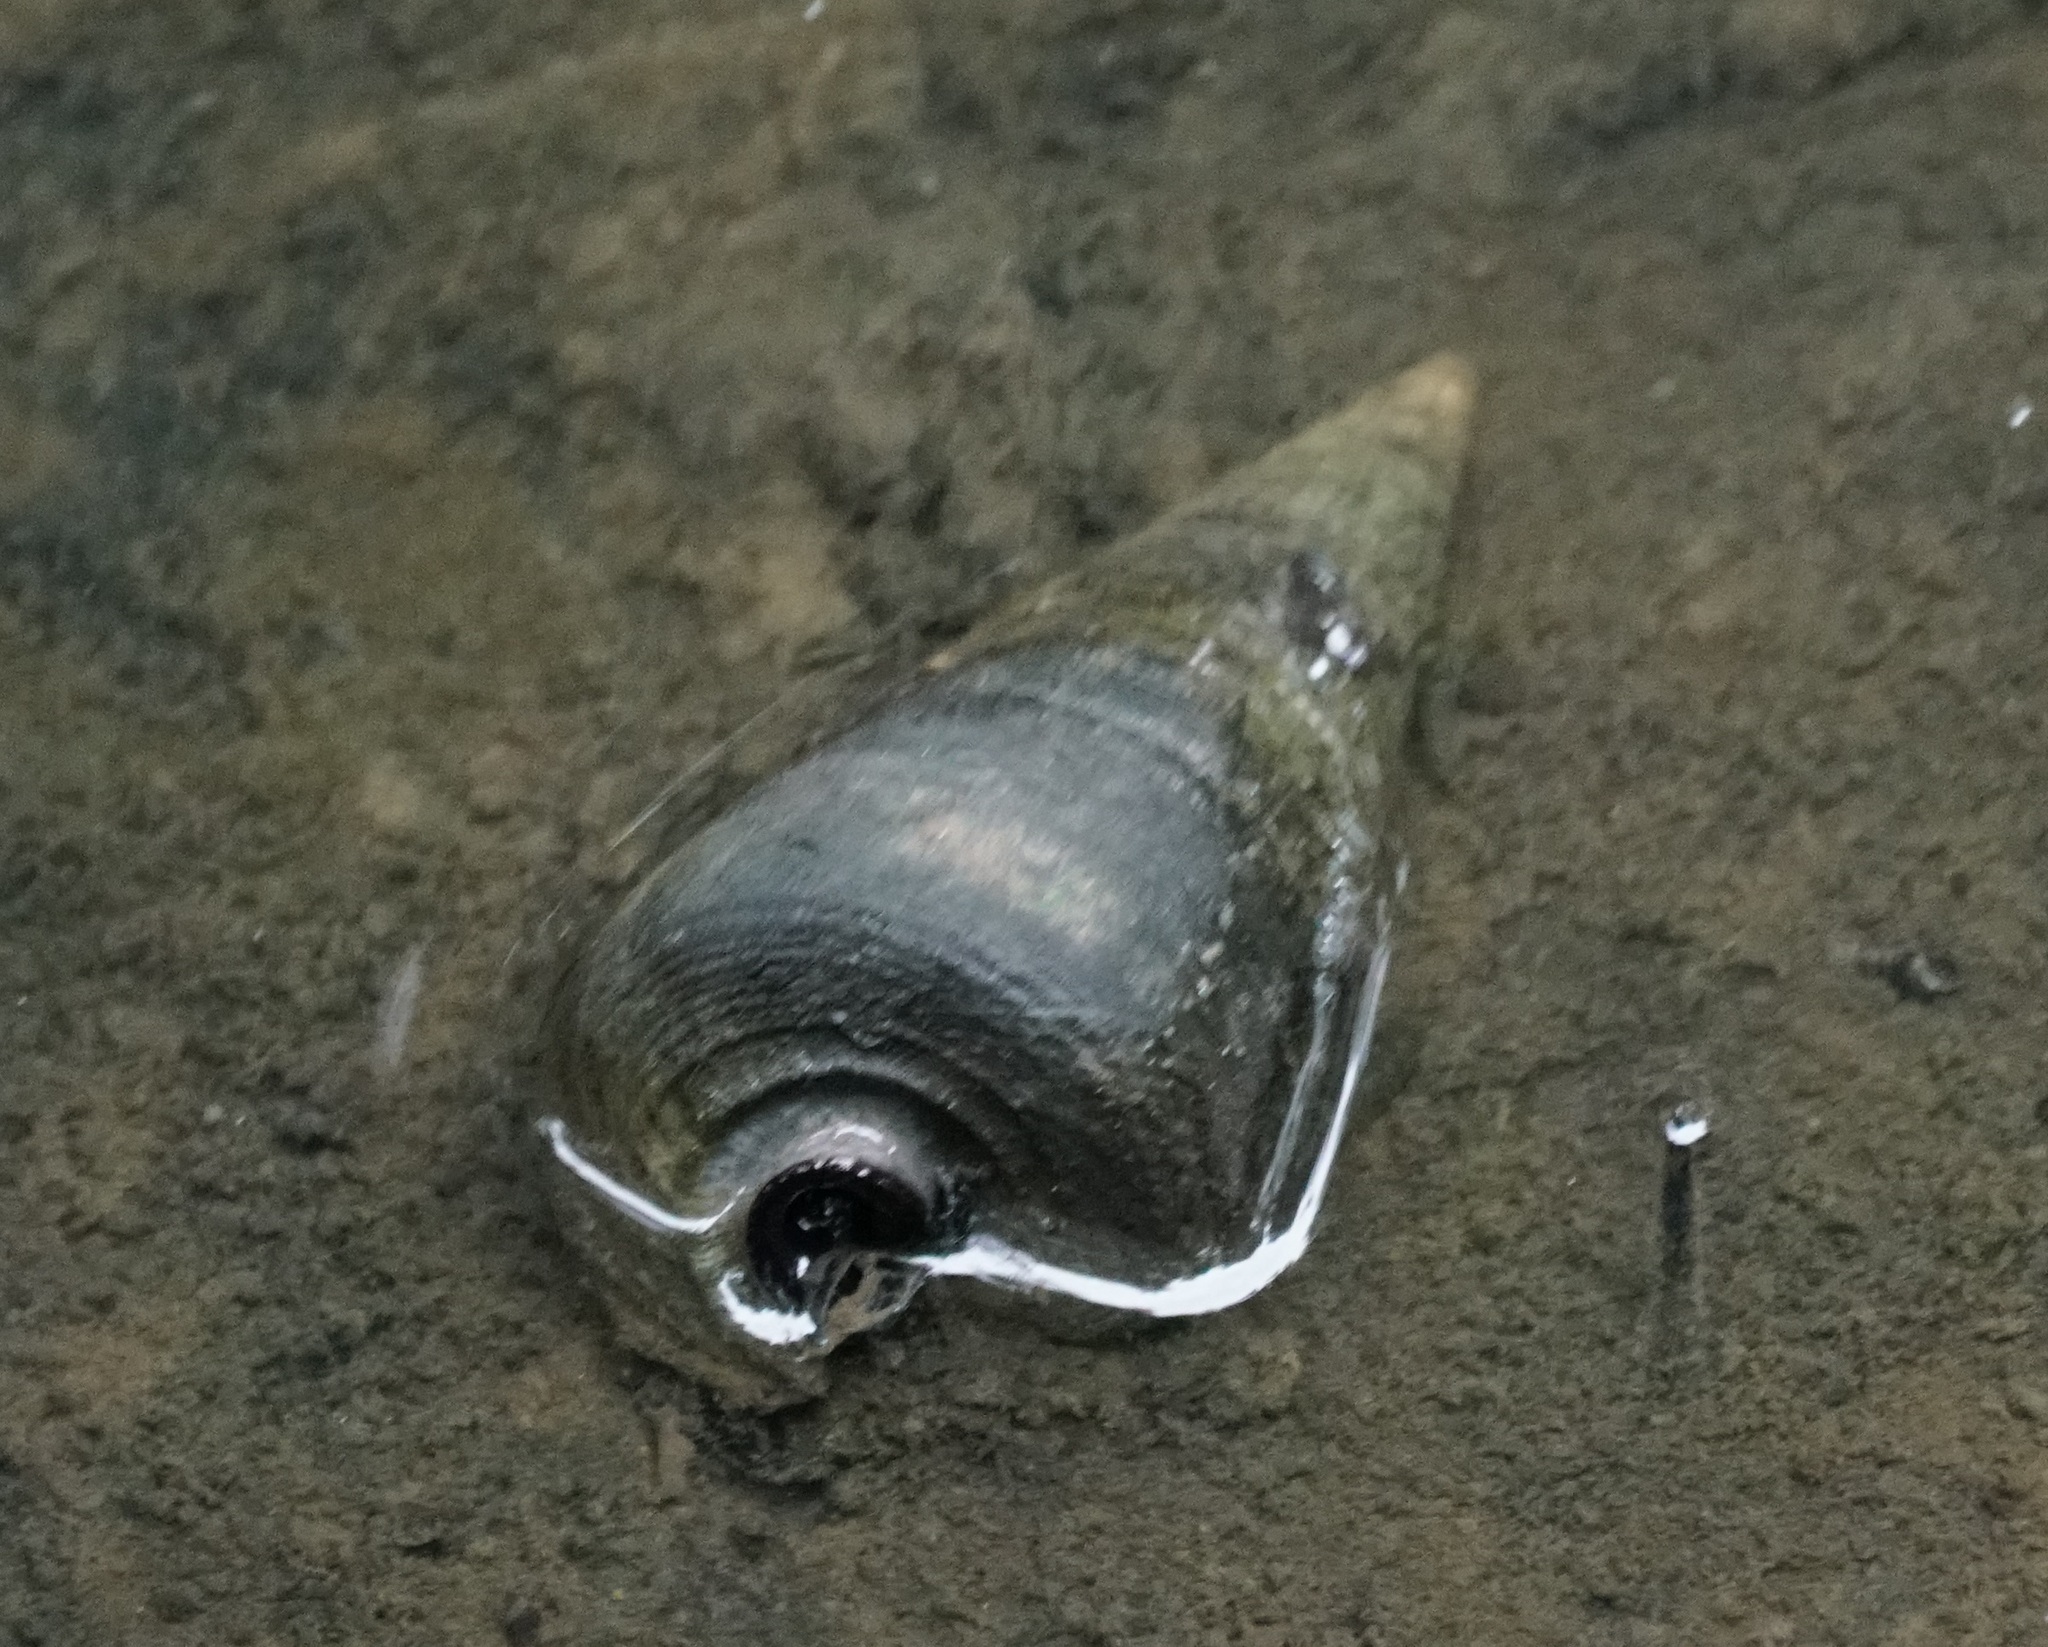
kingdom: Animalia
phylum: Mollusca
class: Gastropoda
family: Potamididae
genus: Telescopium
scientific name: Telescopium telescopium
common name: Telescope creeper
